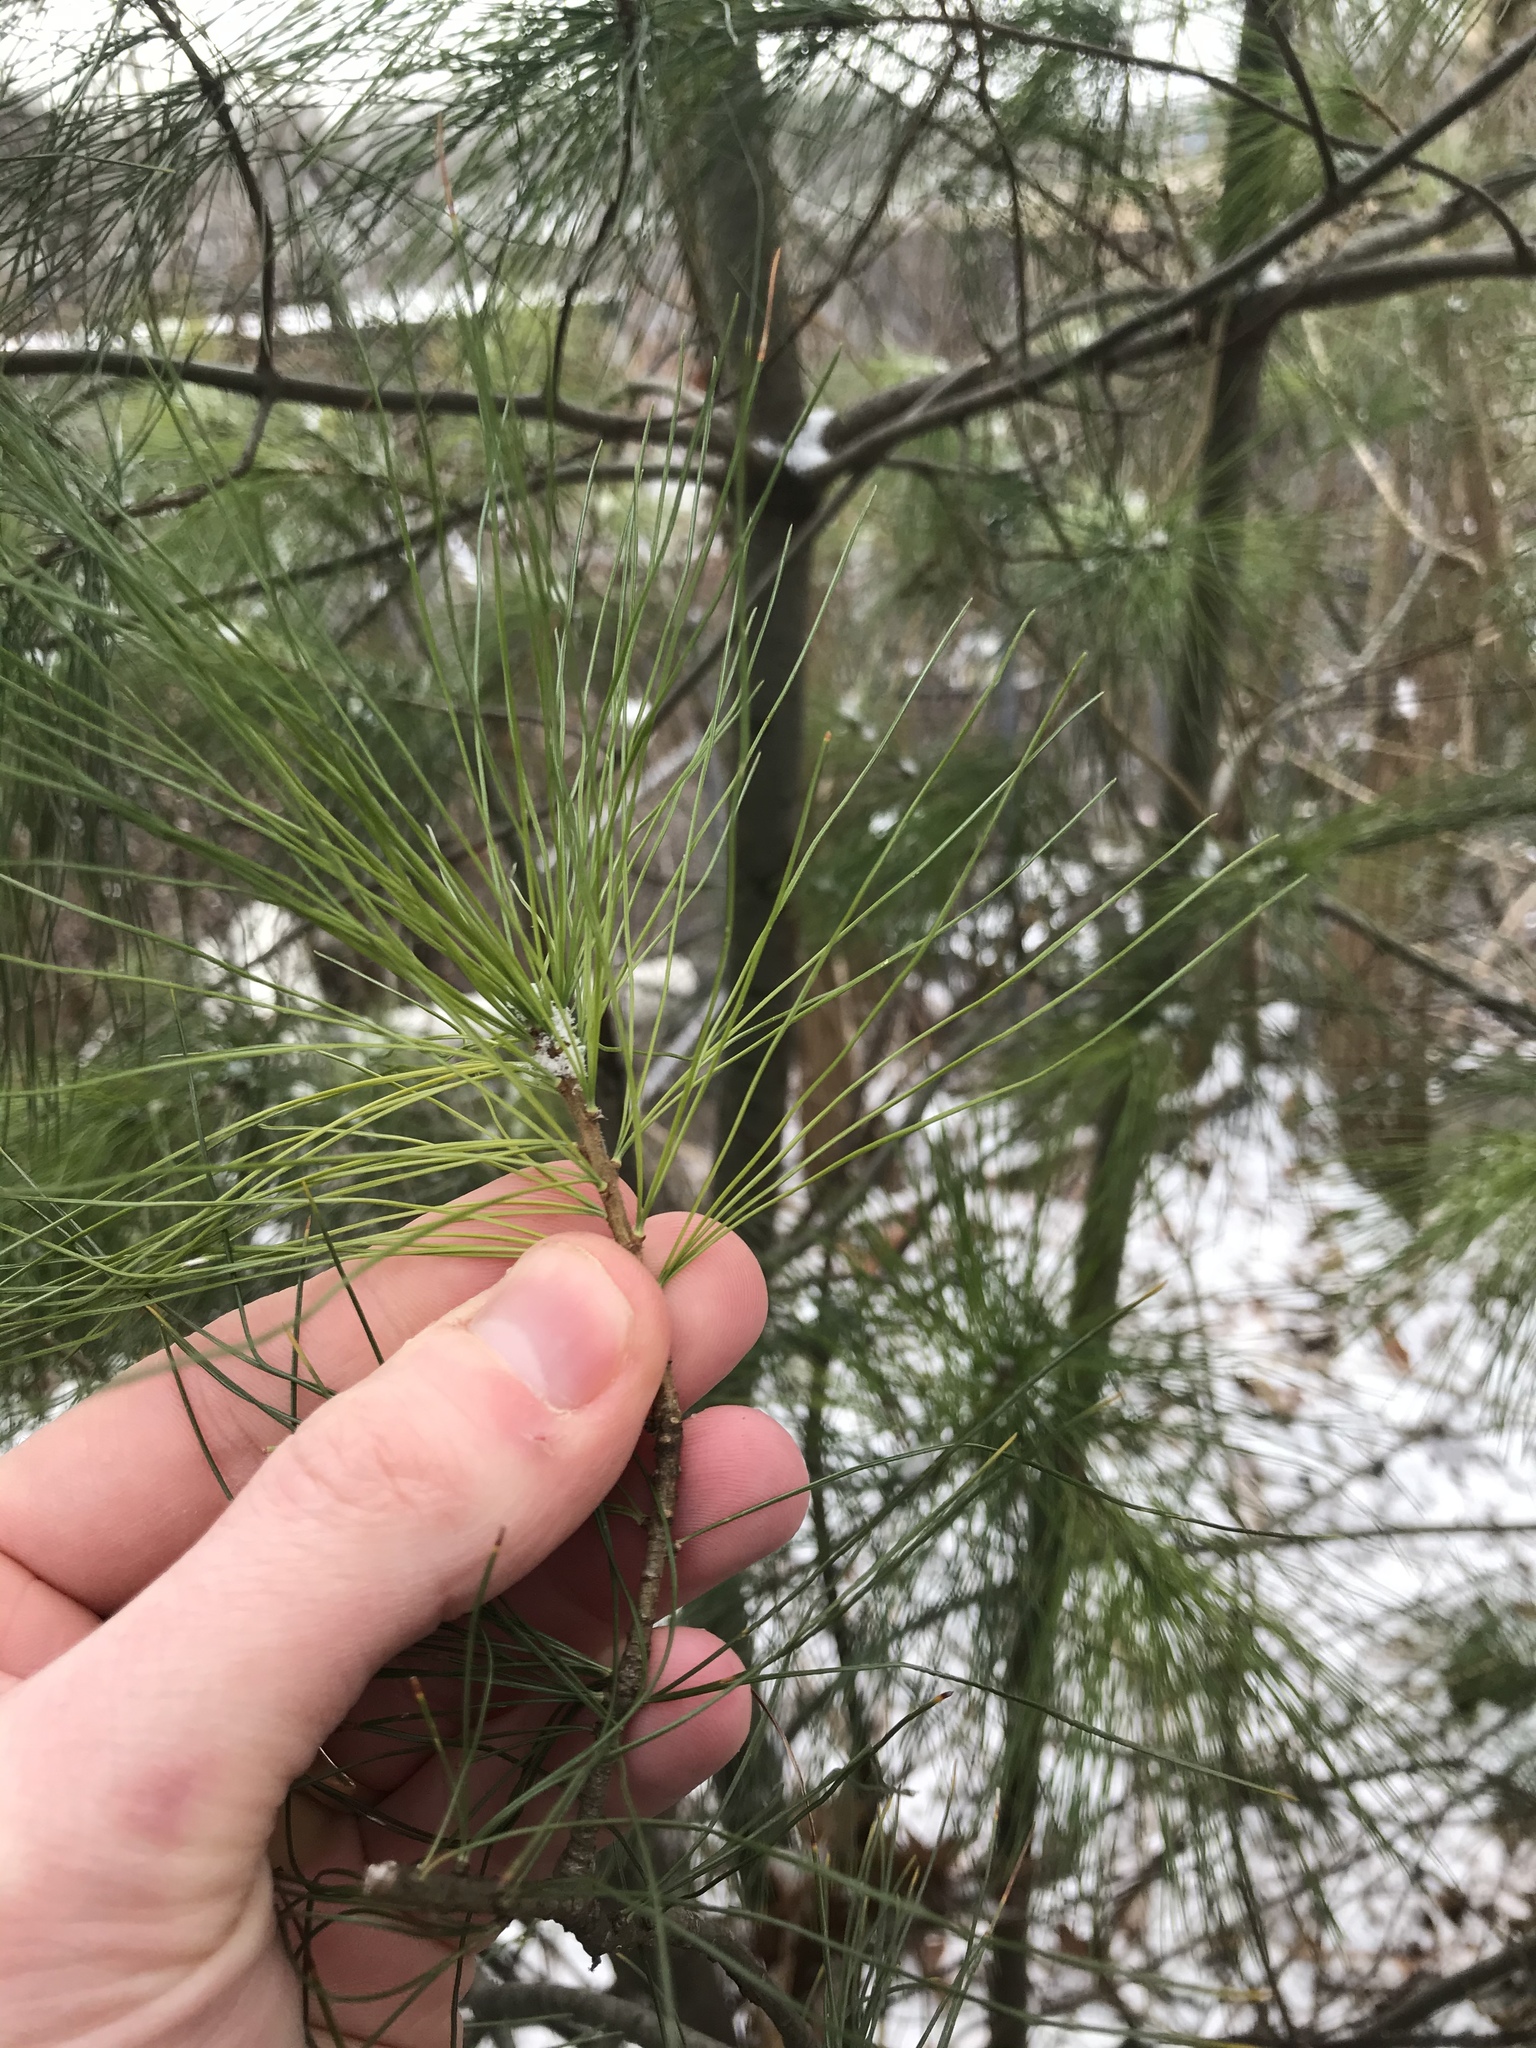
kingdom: Plantae
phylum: Tracheophyta
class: Pinopsida
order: Pinales
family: Pinaceae
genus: Pinus
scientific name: Pinus strobus
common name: Weymouth pine
